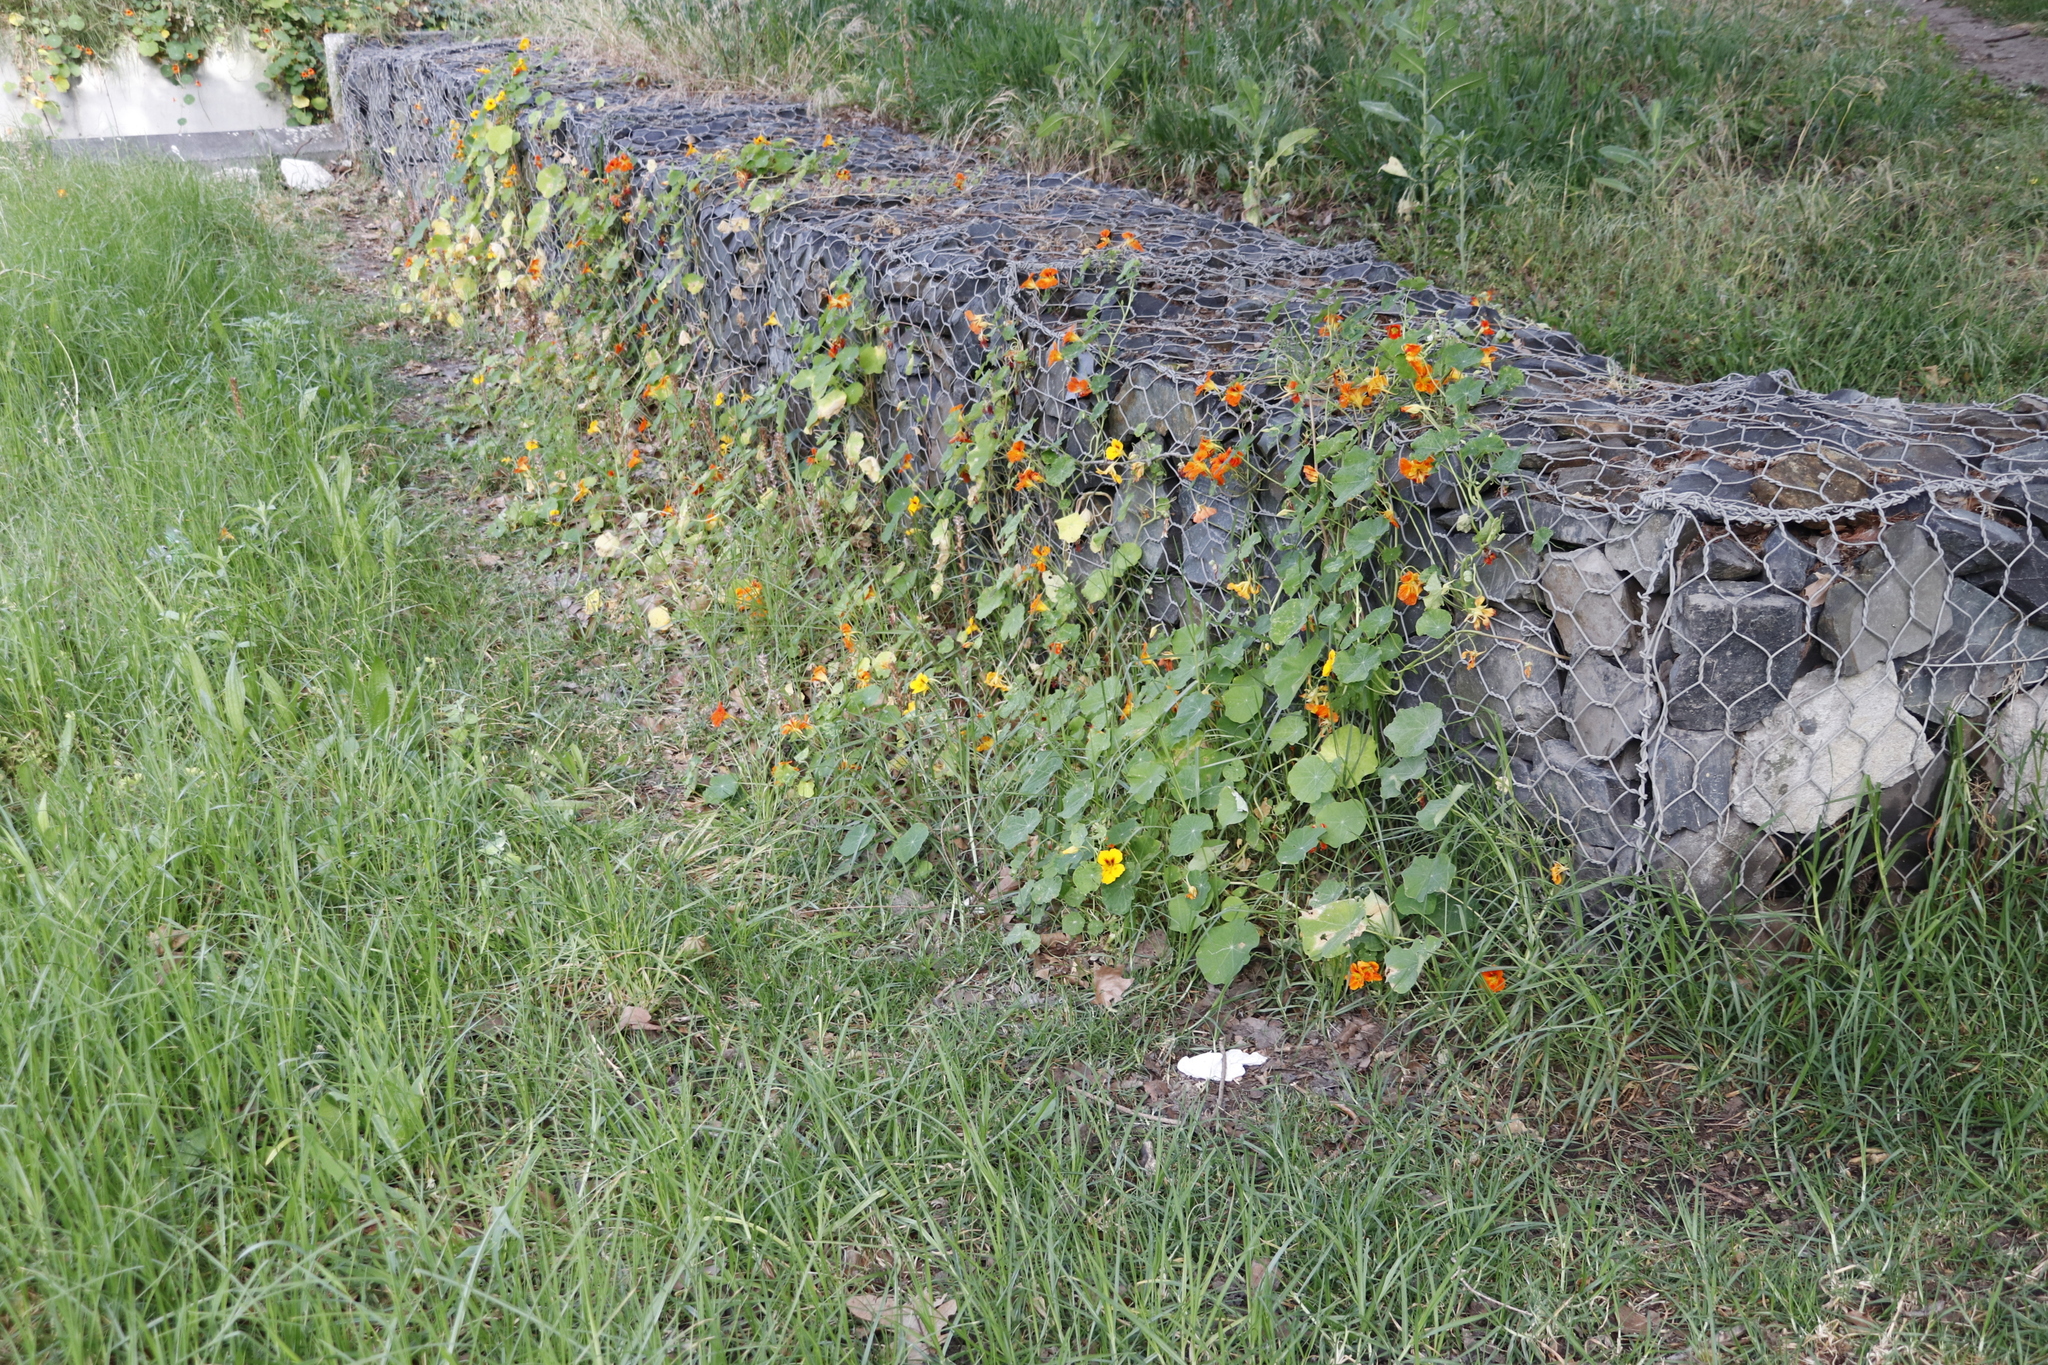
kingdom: Plantae
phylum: Tracheophyta
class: Magnoliopsida
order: Brassicales
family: Tropaeolaceae
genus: Tropaeolum
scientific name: Tropaeolum majus
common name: Nasturtium
